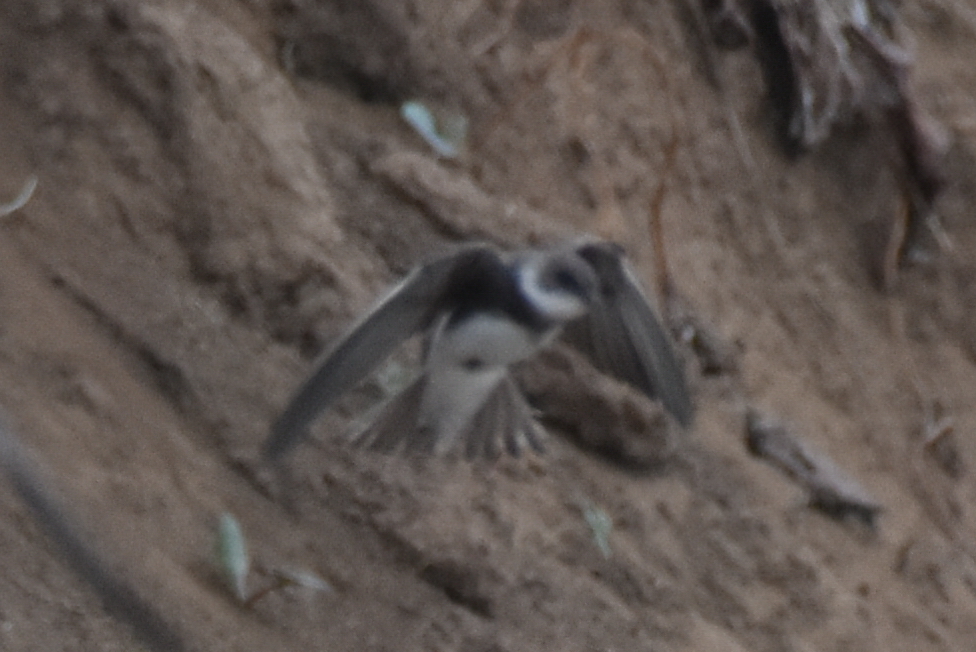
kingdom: Animalia
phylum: Chordata
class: Aves
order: Passeriformes
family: Hirundinidae
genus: Riparia
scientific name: Riparia riparia
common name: Sand martin
